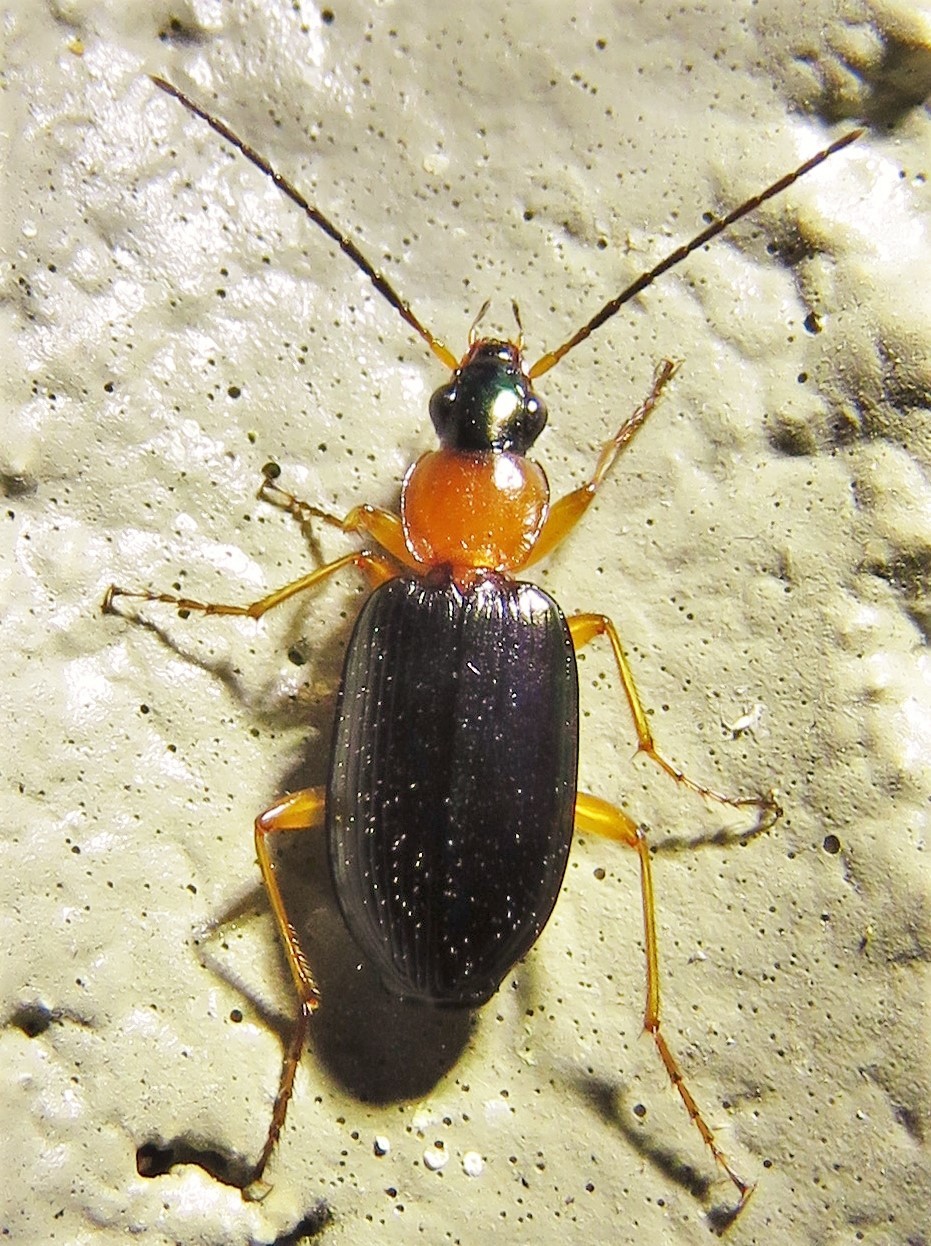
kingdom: Animalia
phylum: Arthropoda
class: Insecta
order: Coleoptera
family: Carabidae
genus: Agonum
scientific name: Agonum decorum
